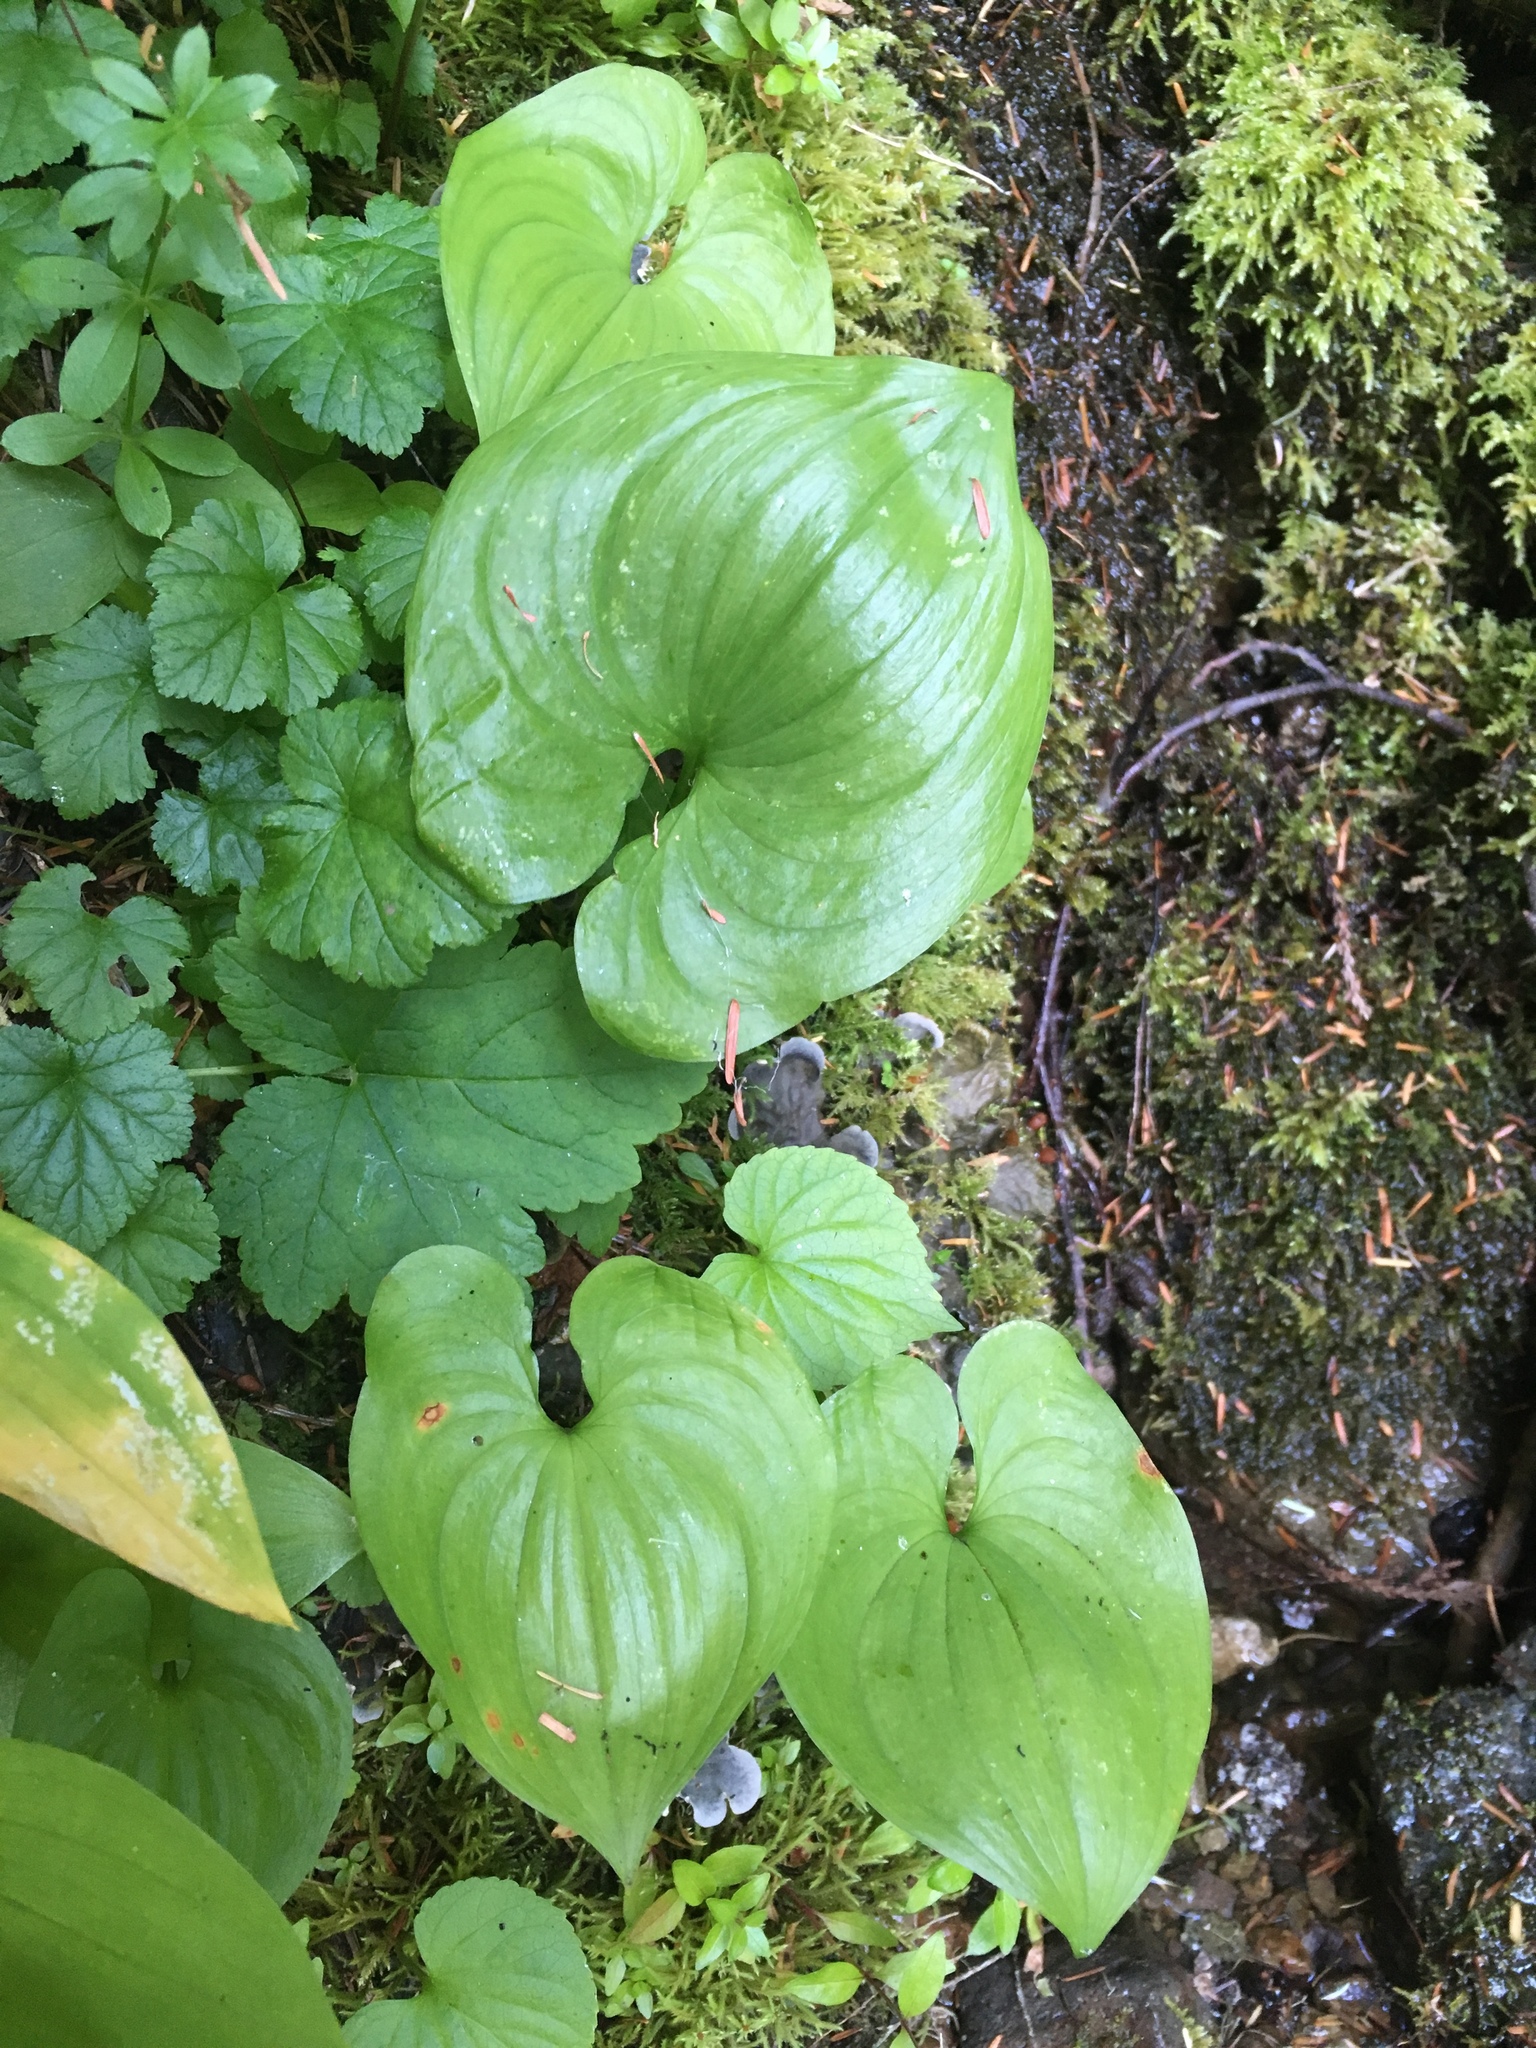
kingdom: Plantae
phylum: Tracheophyta
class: Liliopsida
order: Asparagales
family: Asparagaceae
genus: Maianthemum
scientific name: Maianthemum dilatatum
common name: False lily-of-the-valley
